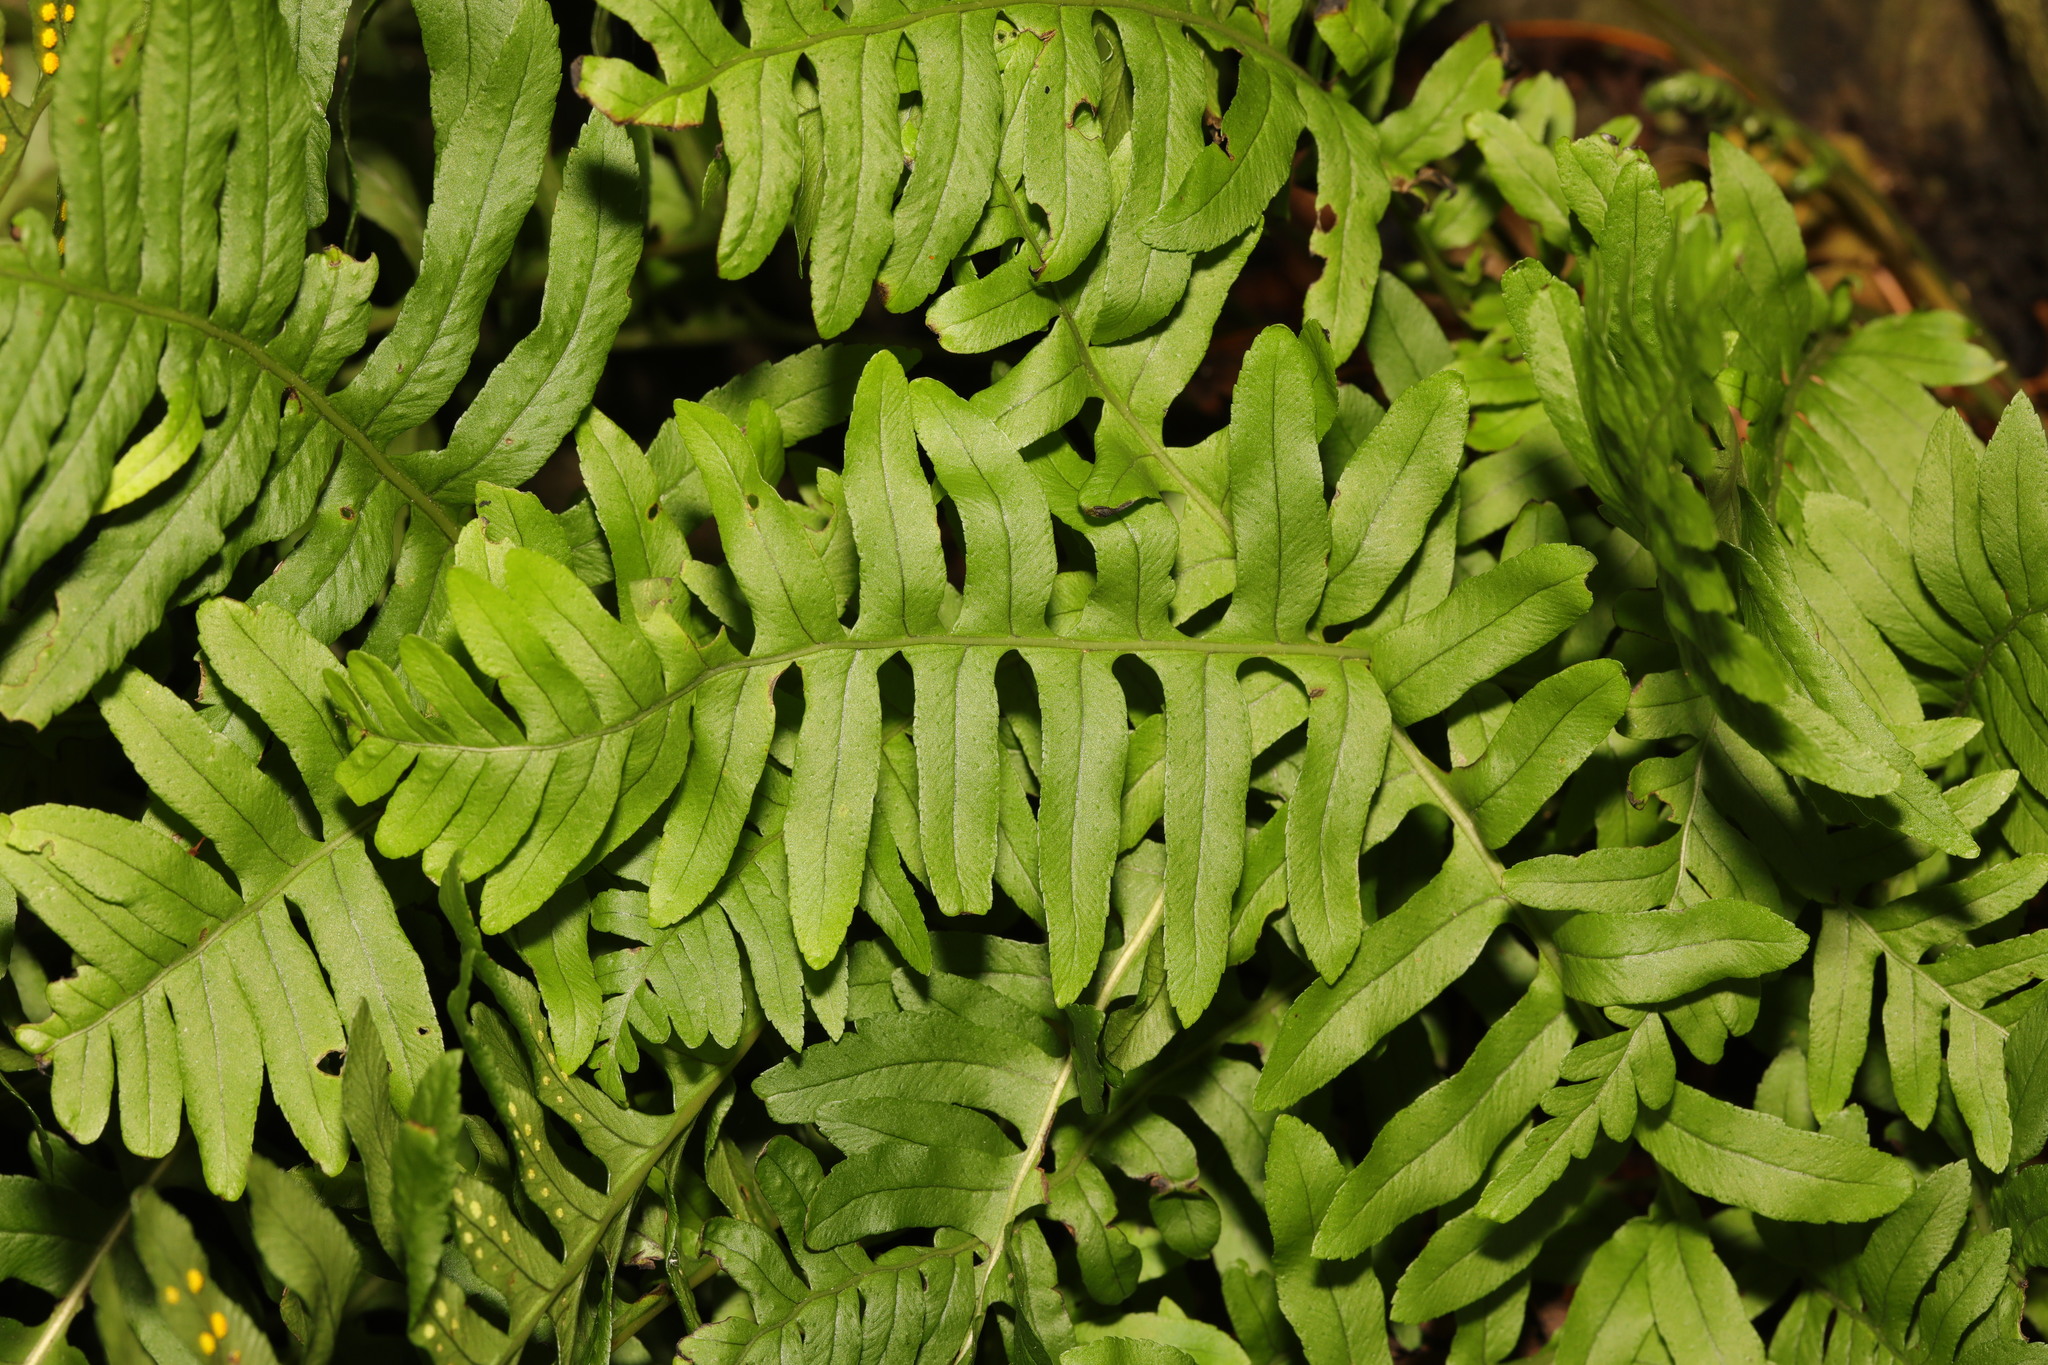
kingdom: Plantae
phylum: Tracheophyta
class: Polypodiopsida
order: Polypodiales
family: Polypodiaceae
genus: Polypodium
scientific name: Polypodium vulgare
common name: Common polypody
